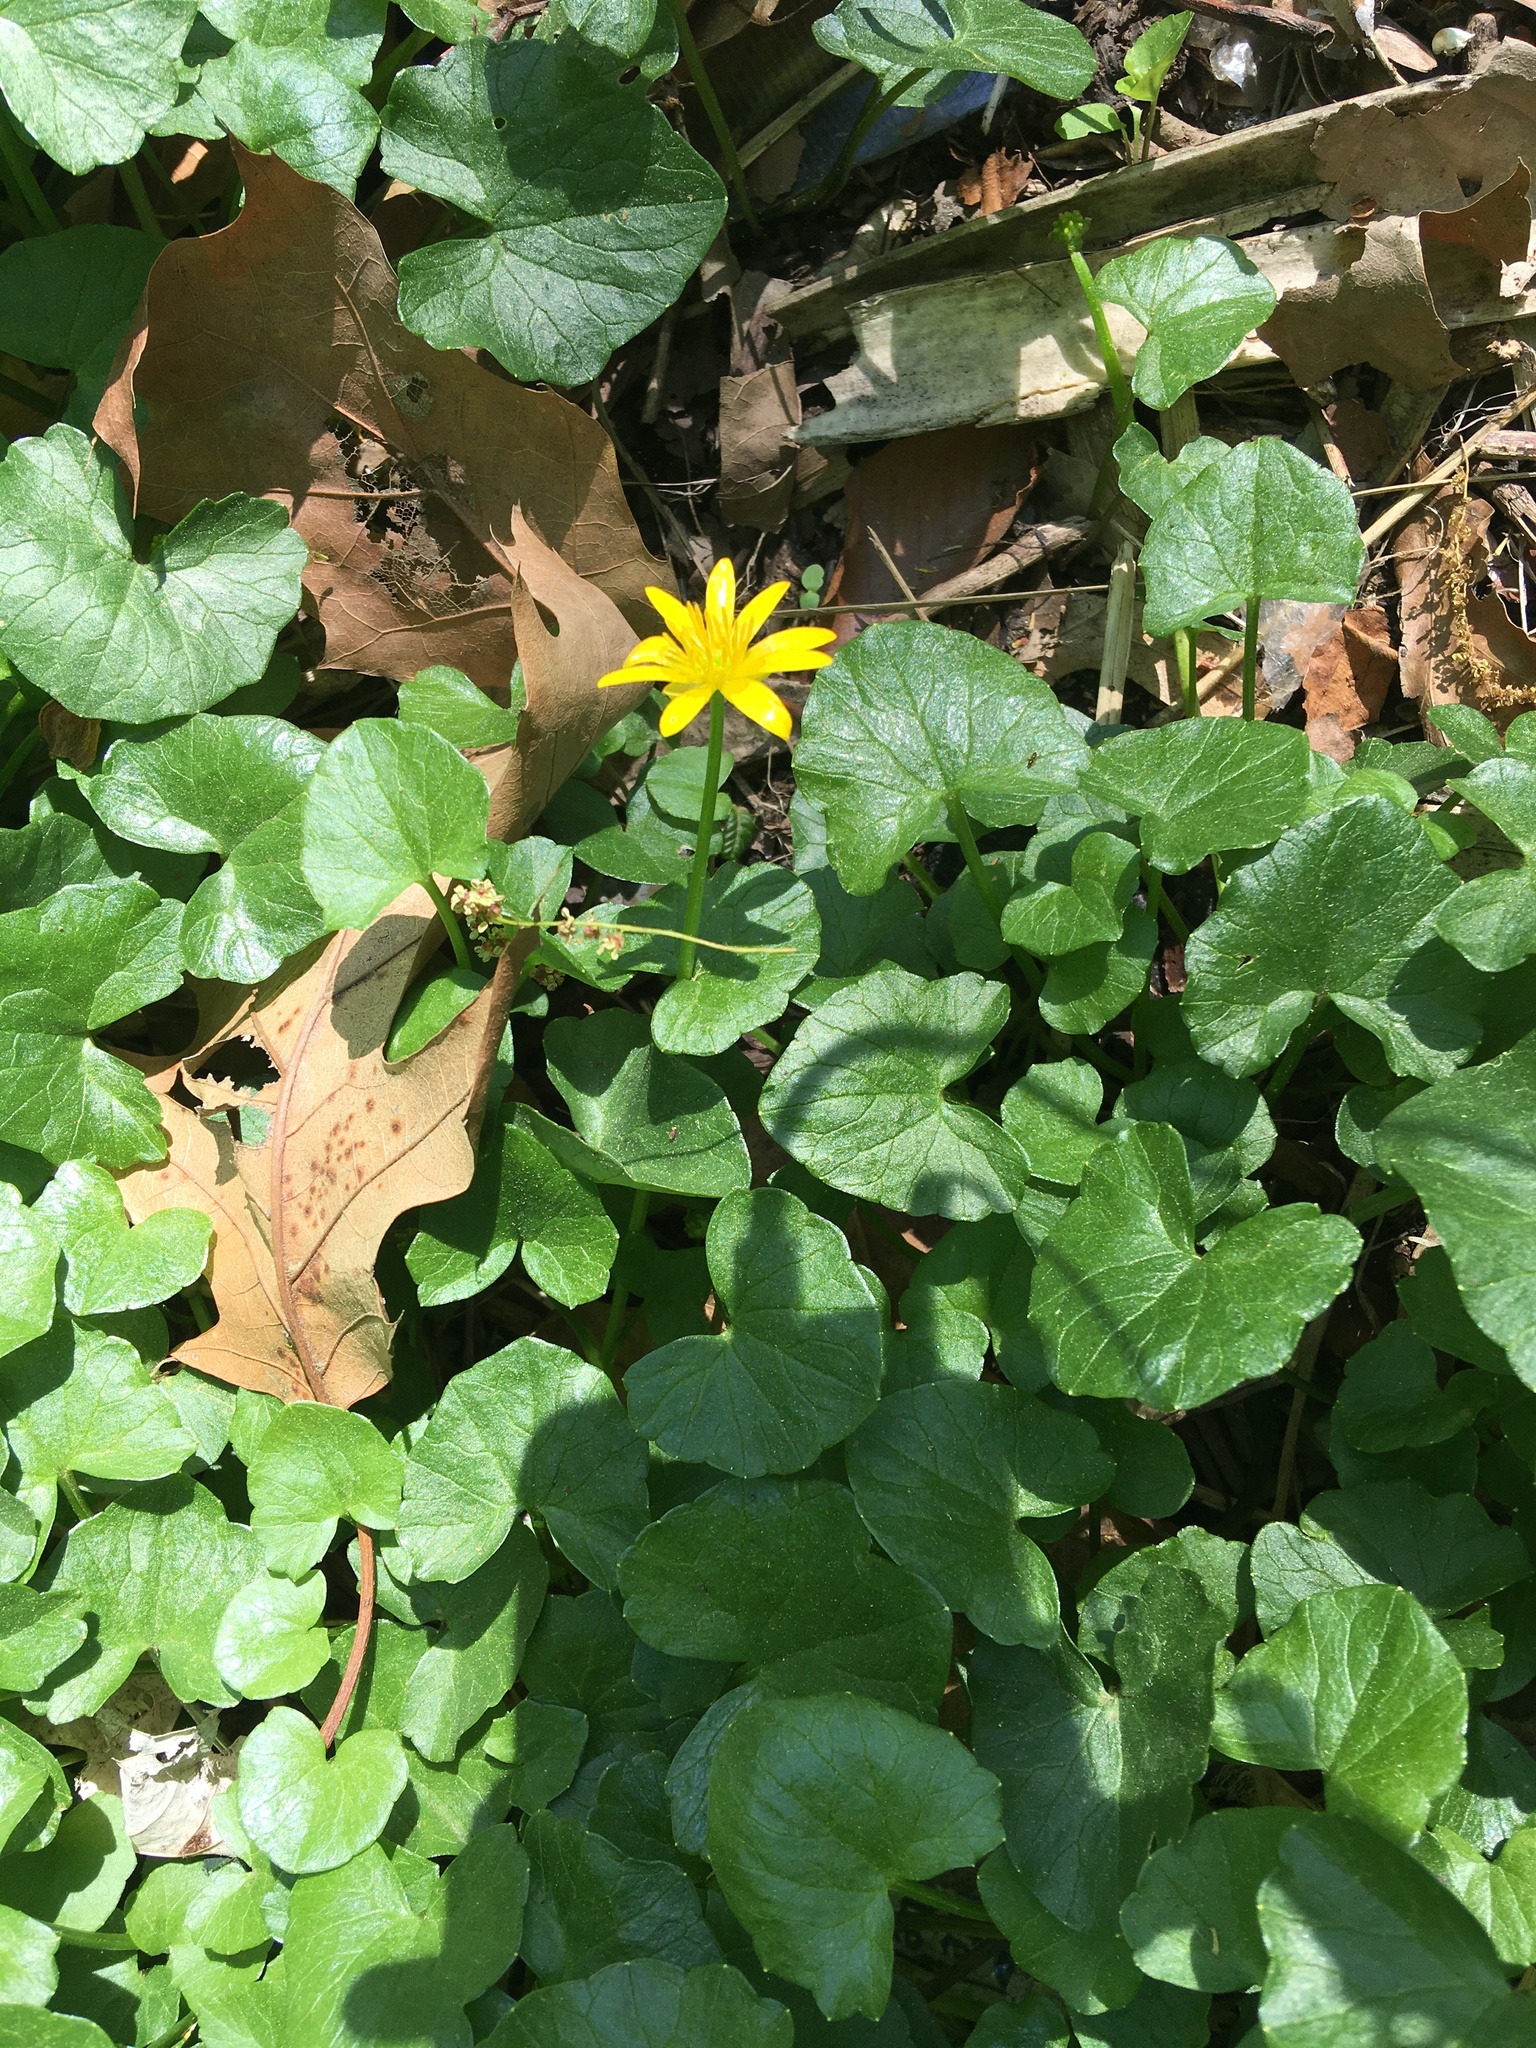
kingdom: Plantae
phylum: Tracheophyta
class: Magnoliopsida
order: Ranunculales
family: Ranunculaceae
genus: Ficaria
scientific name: Ficaria verna
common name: Lesser celandine
